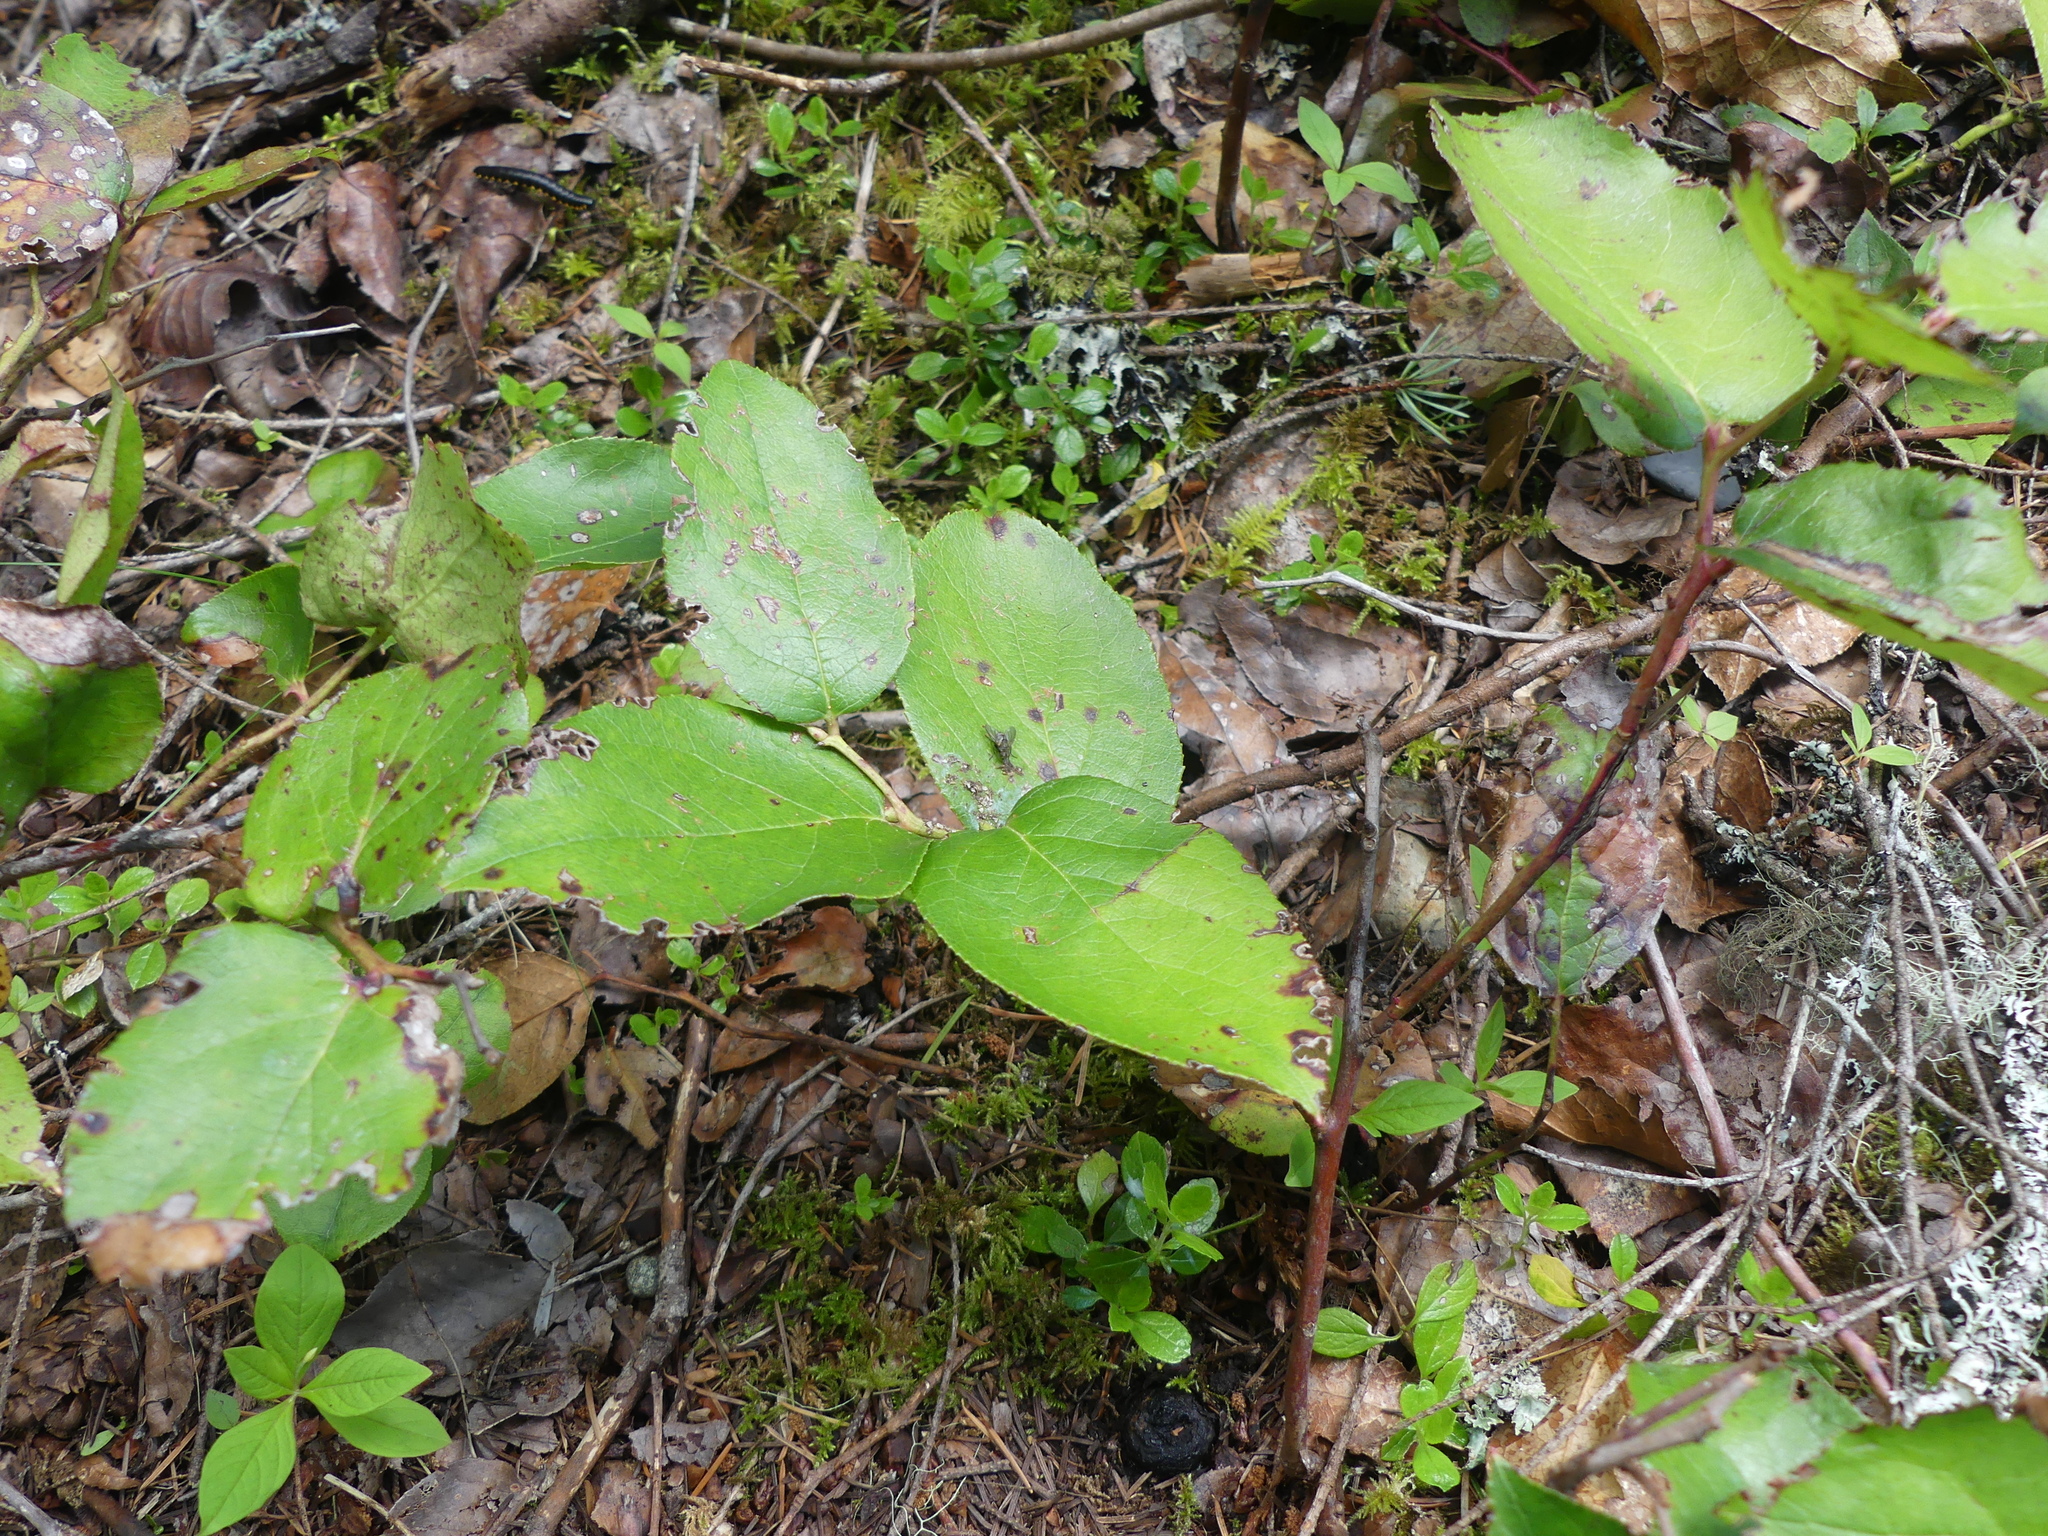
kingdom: Plantae
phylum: Tracheophyta
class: Magnoliopsida
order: Ericales
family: Ericaceae
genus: Gaultheria
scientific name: Gaultheria shallon
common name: Shallon
